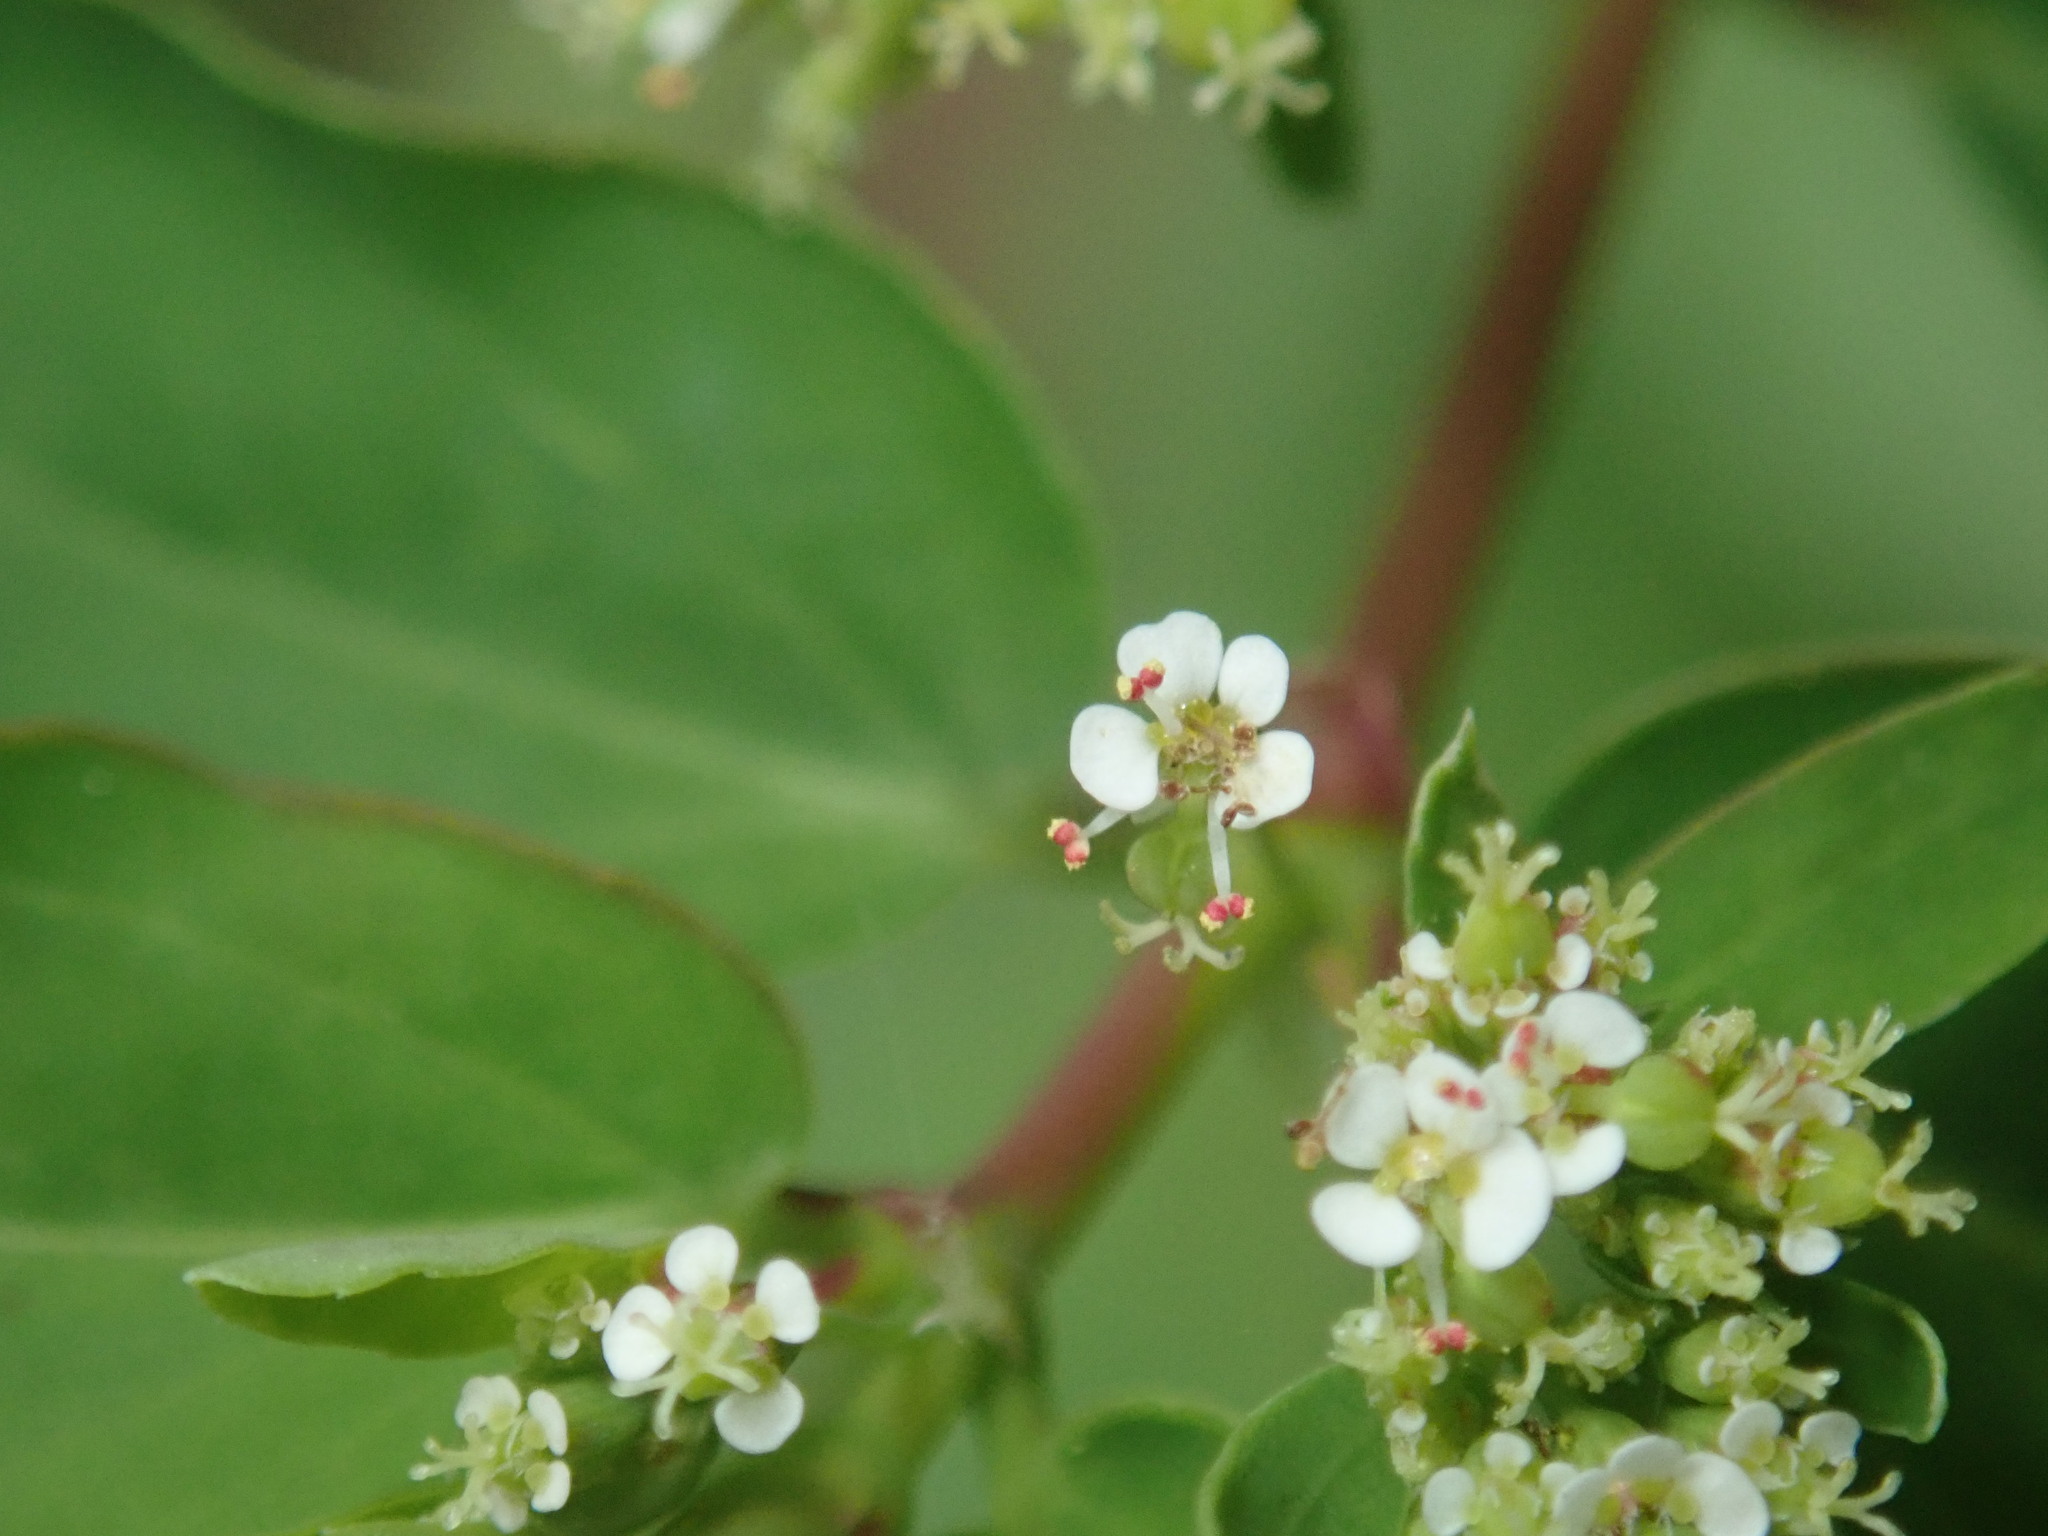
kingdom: Plantae
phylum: Tracheophyta
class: Magnoliopsida
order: Malpighiales
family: Euphorbiaceae
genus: Euphorbia
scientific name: Euphorbia hypericifolia
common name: Graceful sandmat
